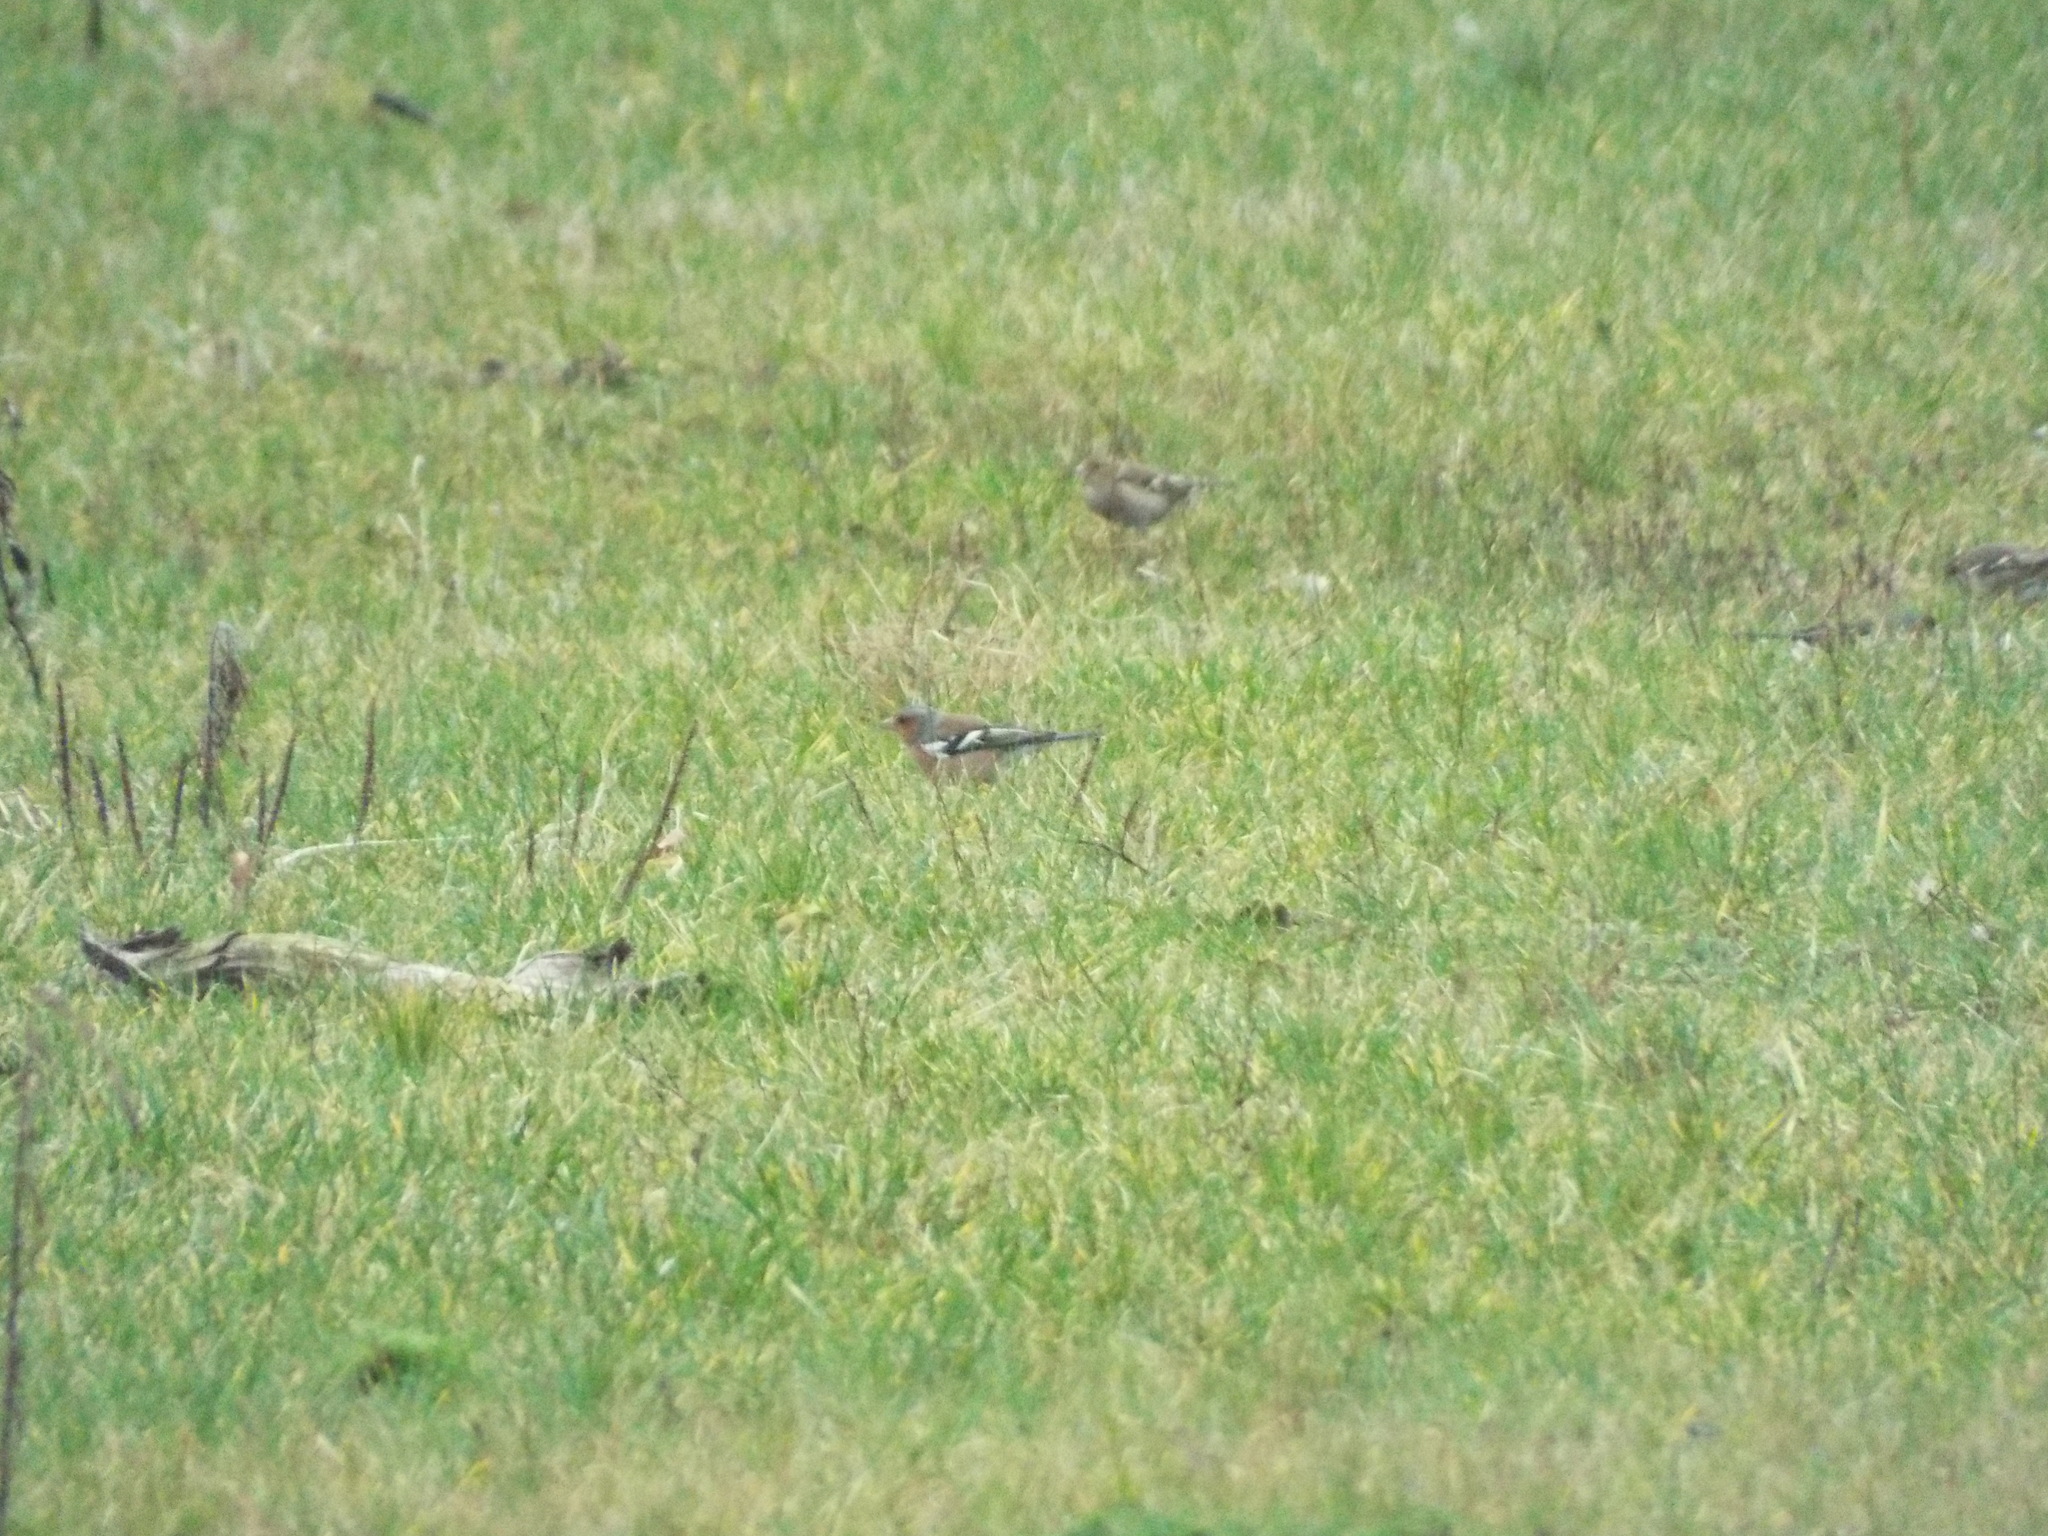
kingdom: Animalia
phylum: Chordata
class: Aves
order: Passeriformes
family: Fringillidae
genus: Fringilla
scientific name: Fringilla coelebs
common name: Common chaffinch
